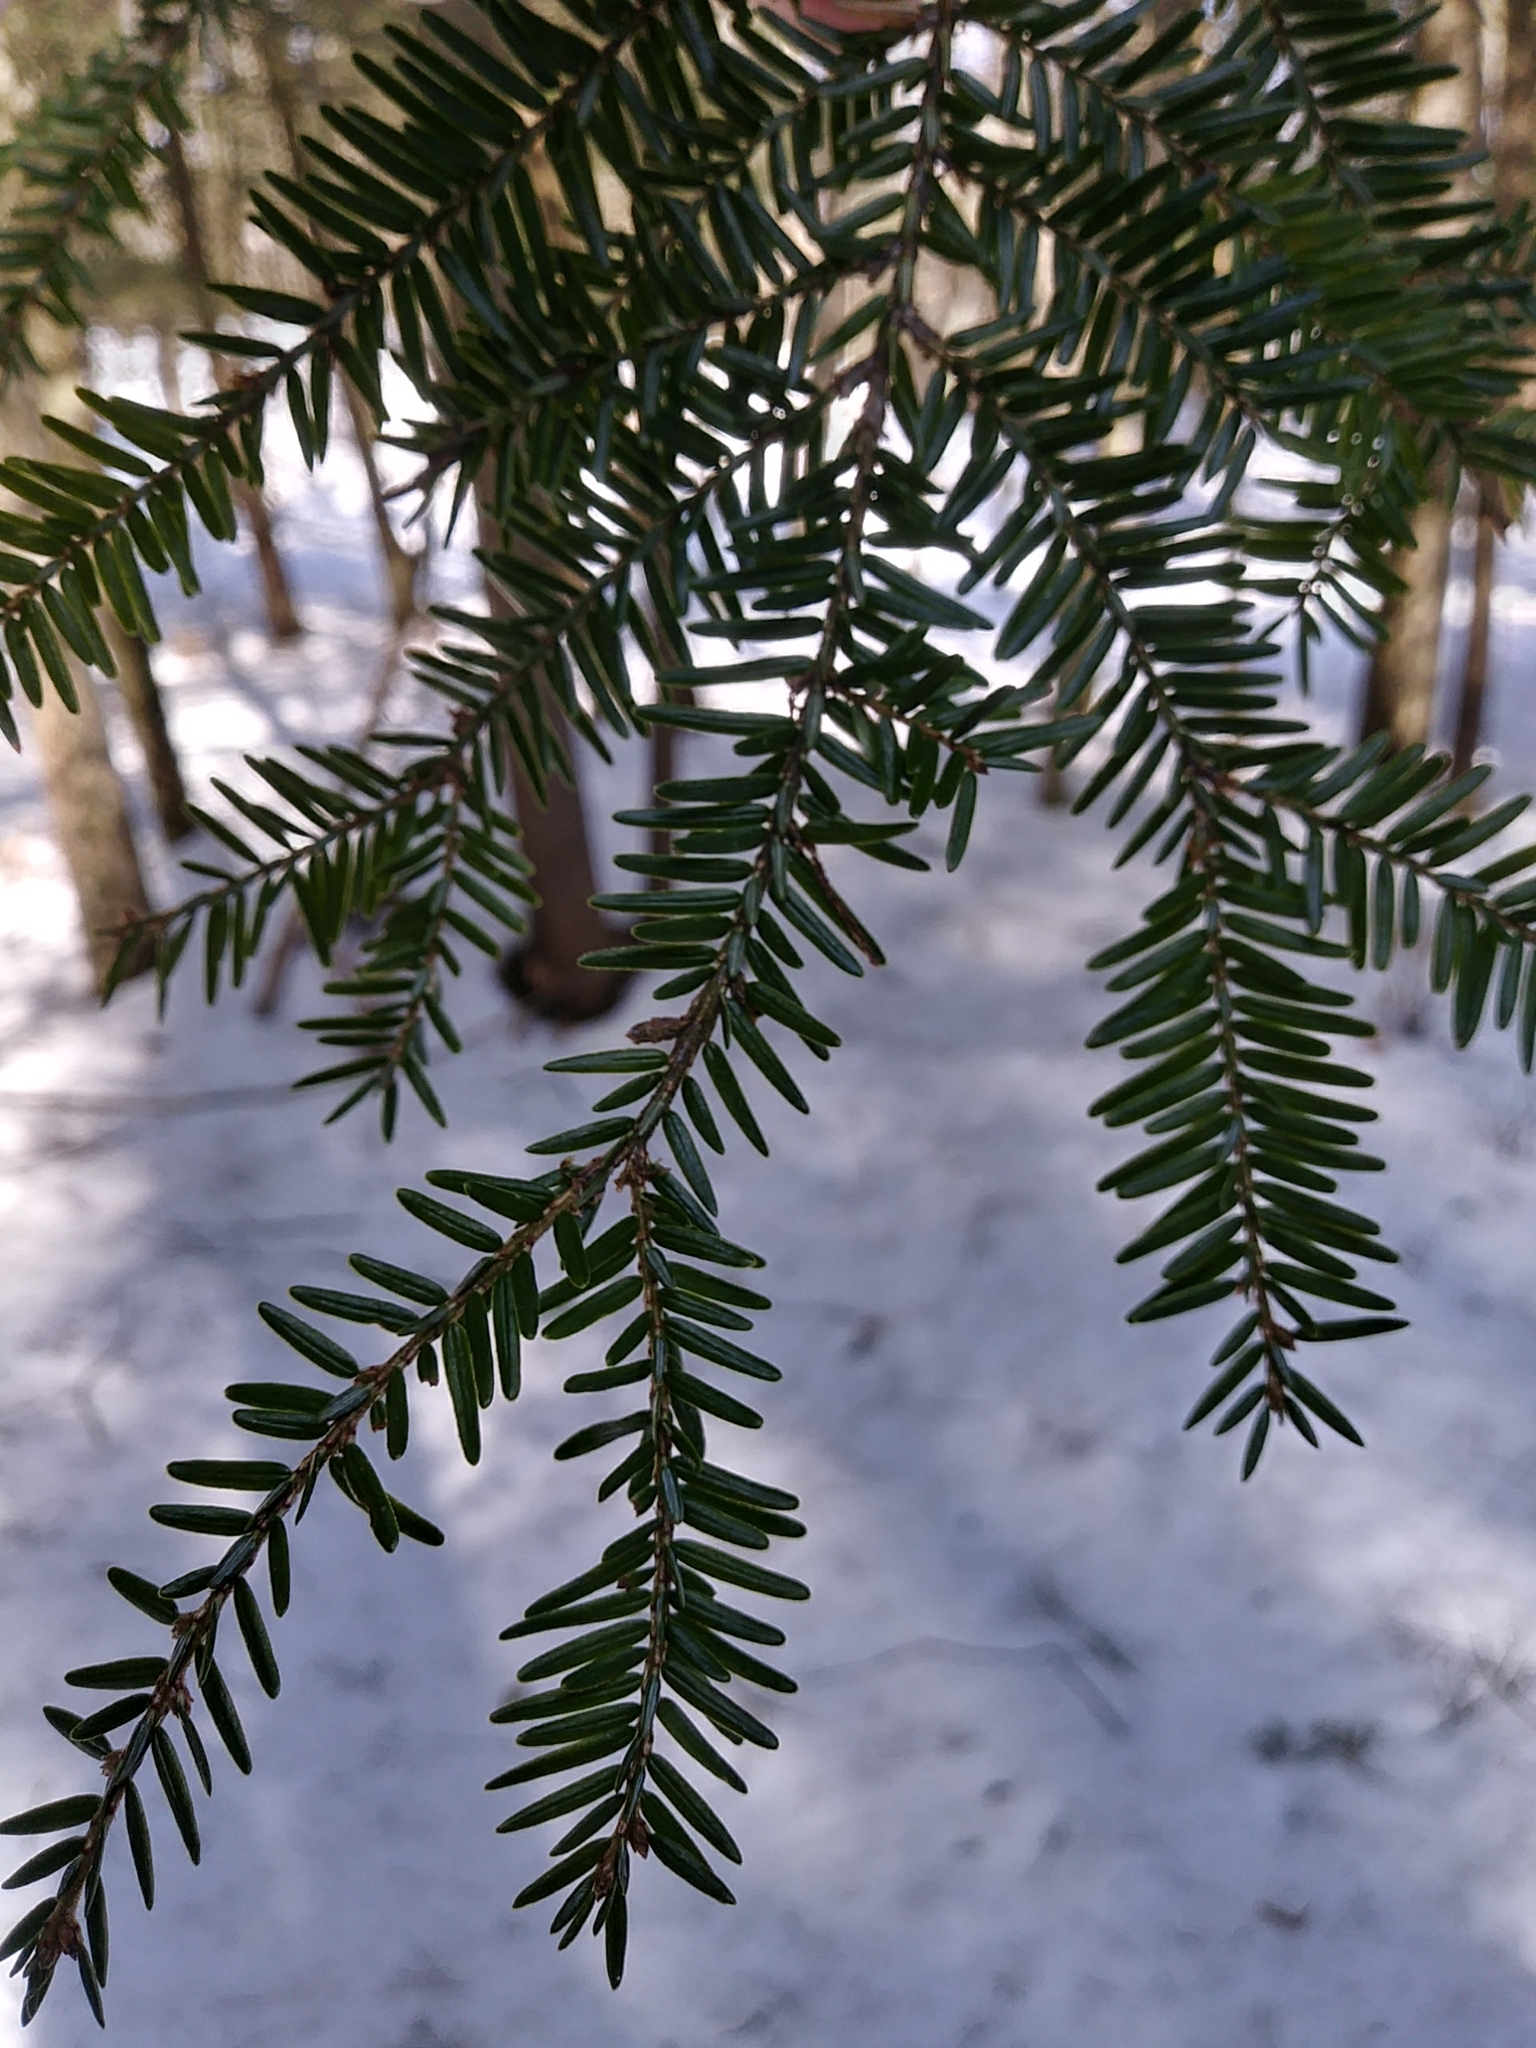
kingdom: Plantae
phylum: Tracheophyta
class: Pinopsida
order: Pinales
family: Pinaceae
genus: Tsuga
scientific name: Tsuga canadensis
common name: Eastern hemlock
